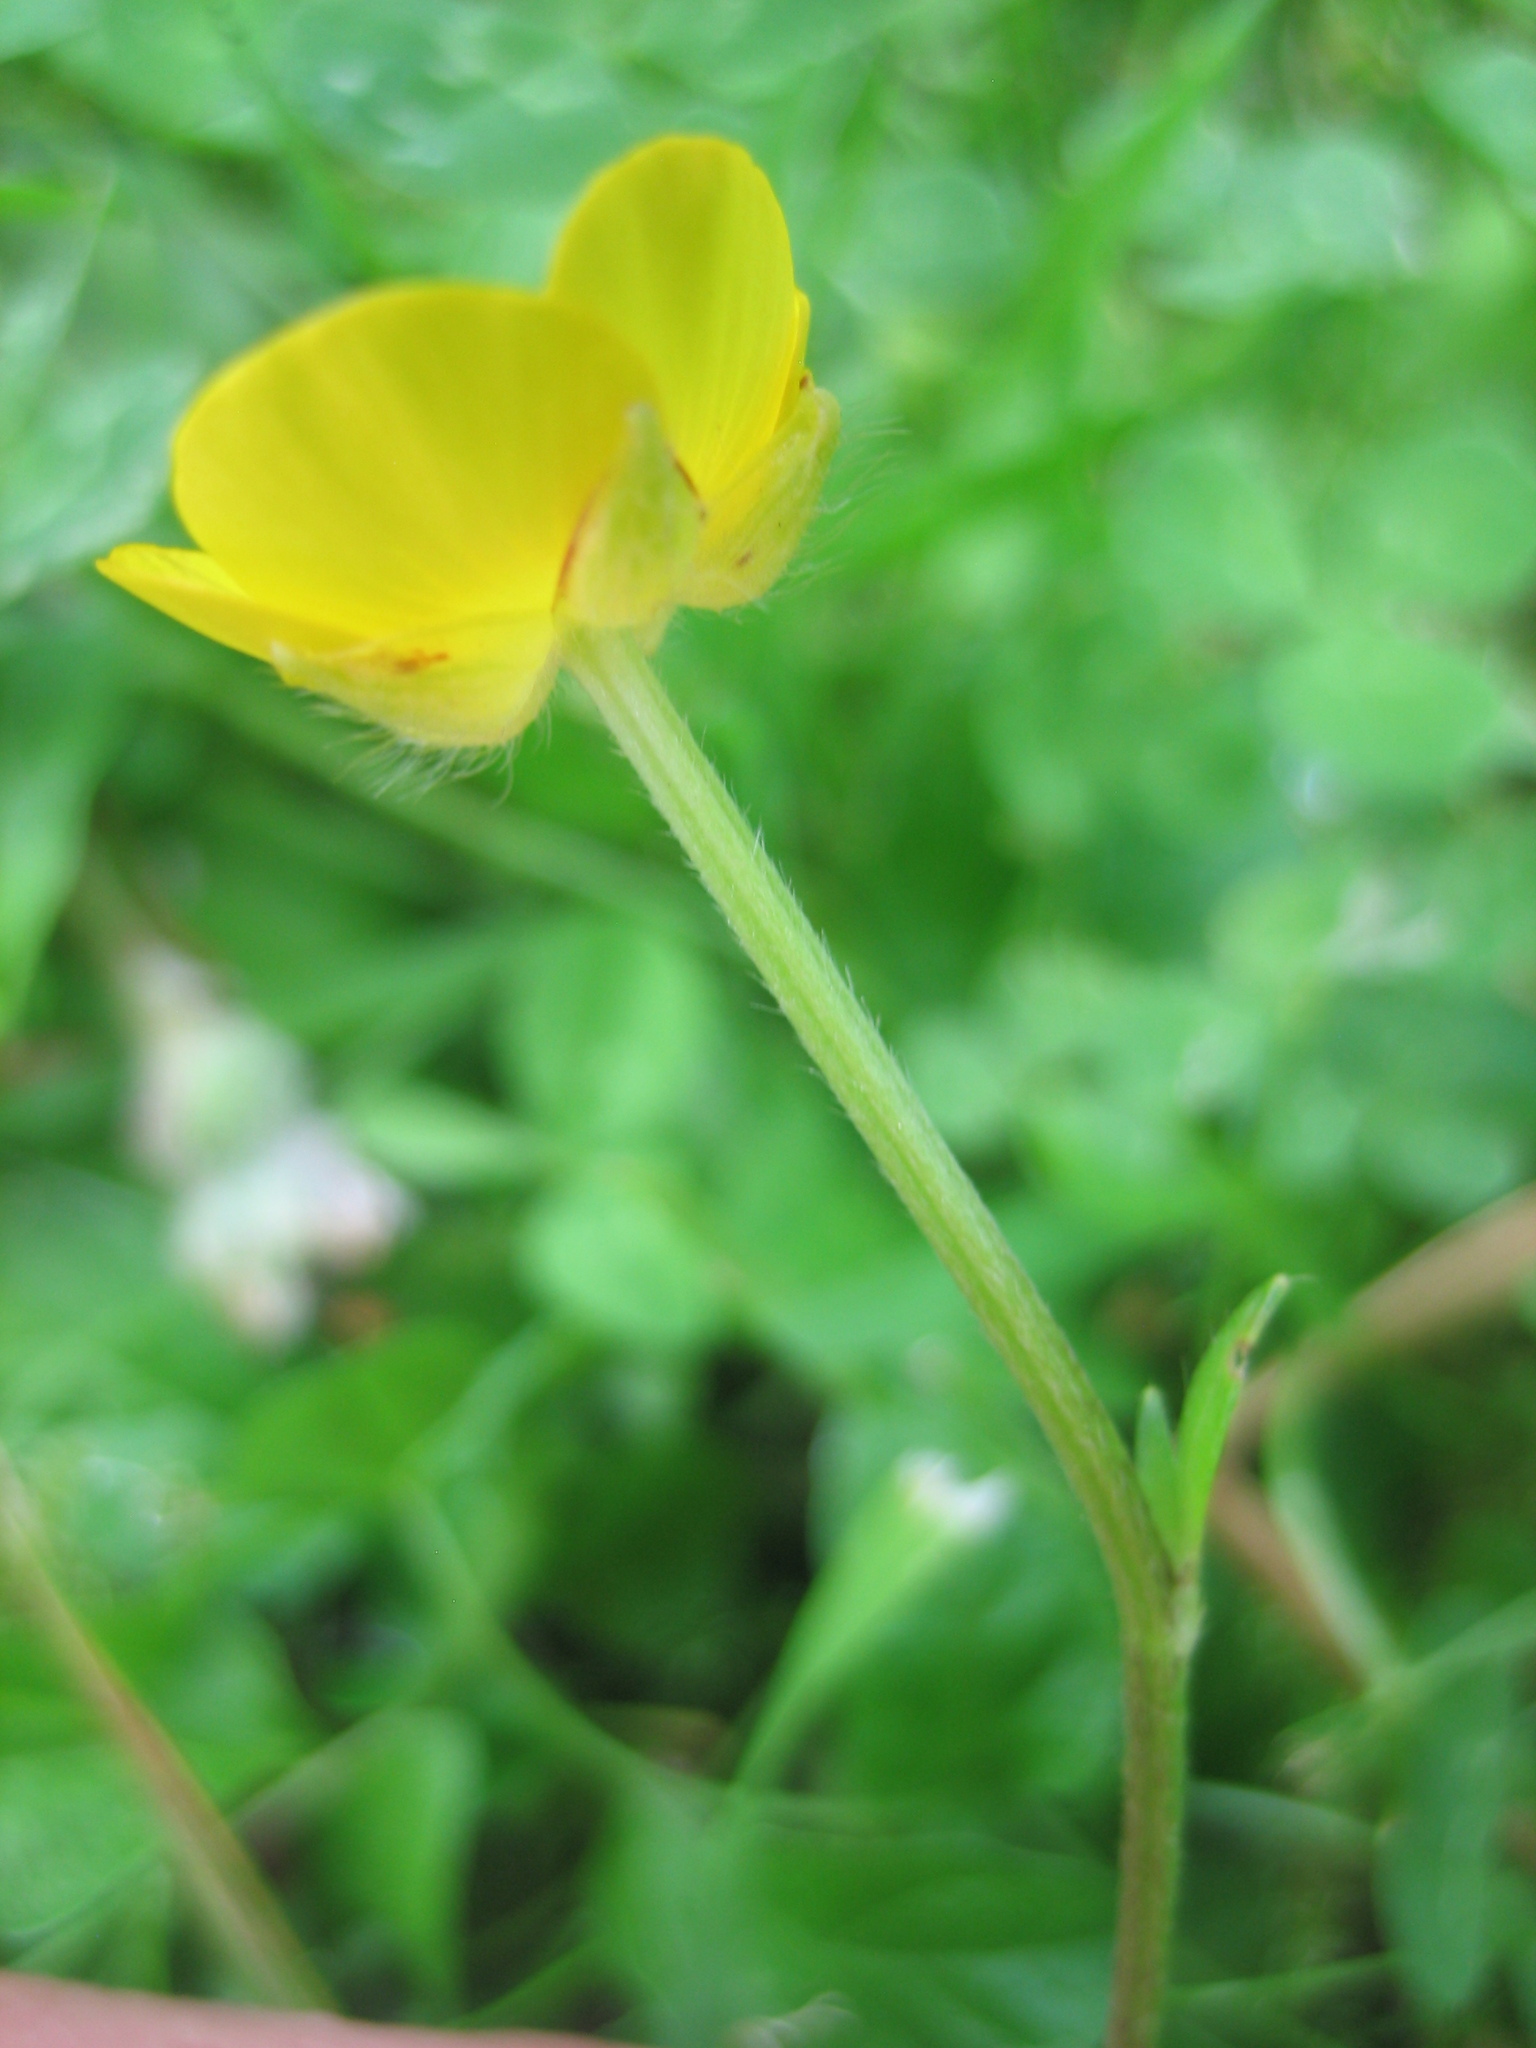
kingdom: Plantae
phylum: Tracheophyta
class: Magnoliopsida
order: Ranunculales
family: Ranunculaceae
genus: Ranunculus
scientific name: Ranunculus repens
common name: Creeping buttercup
